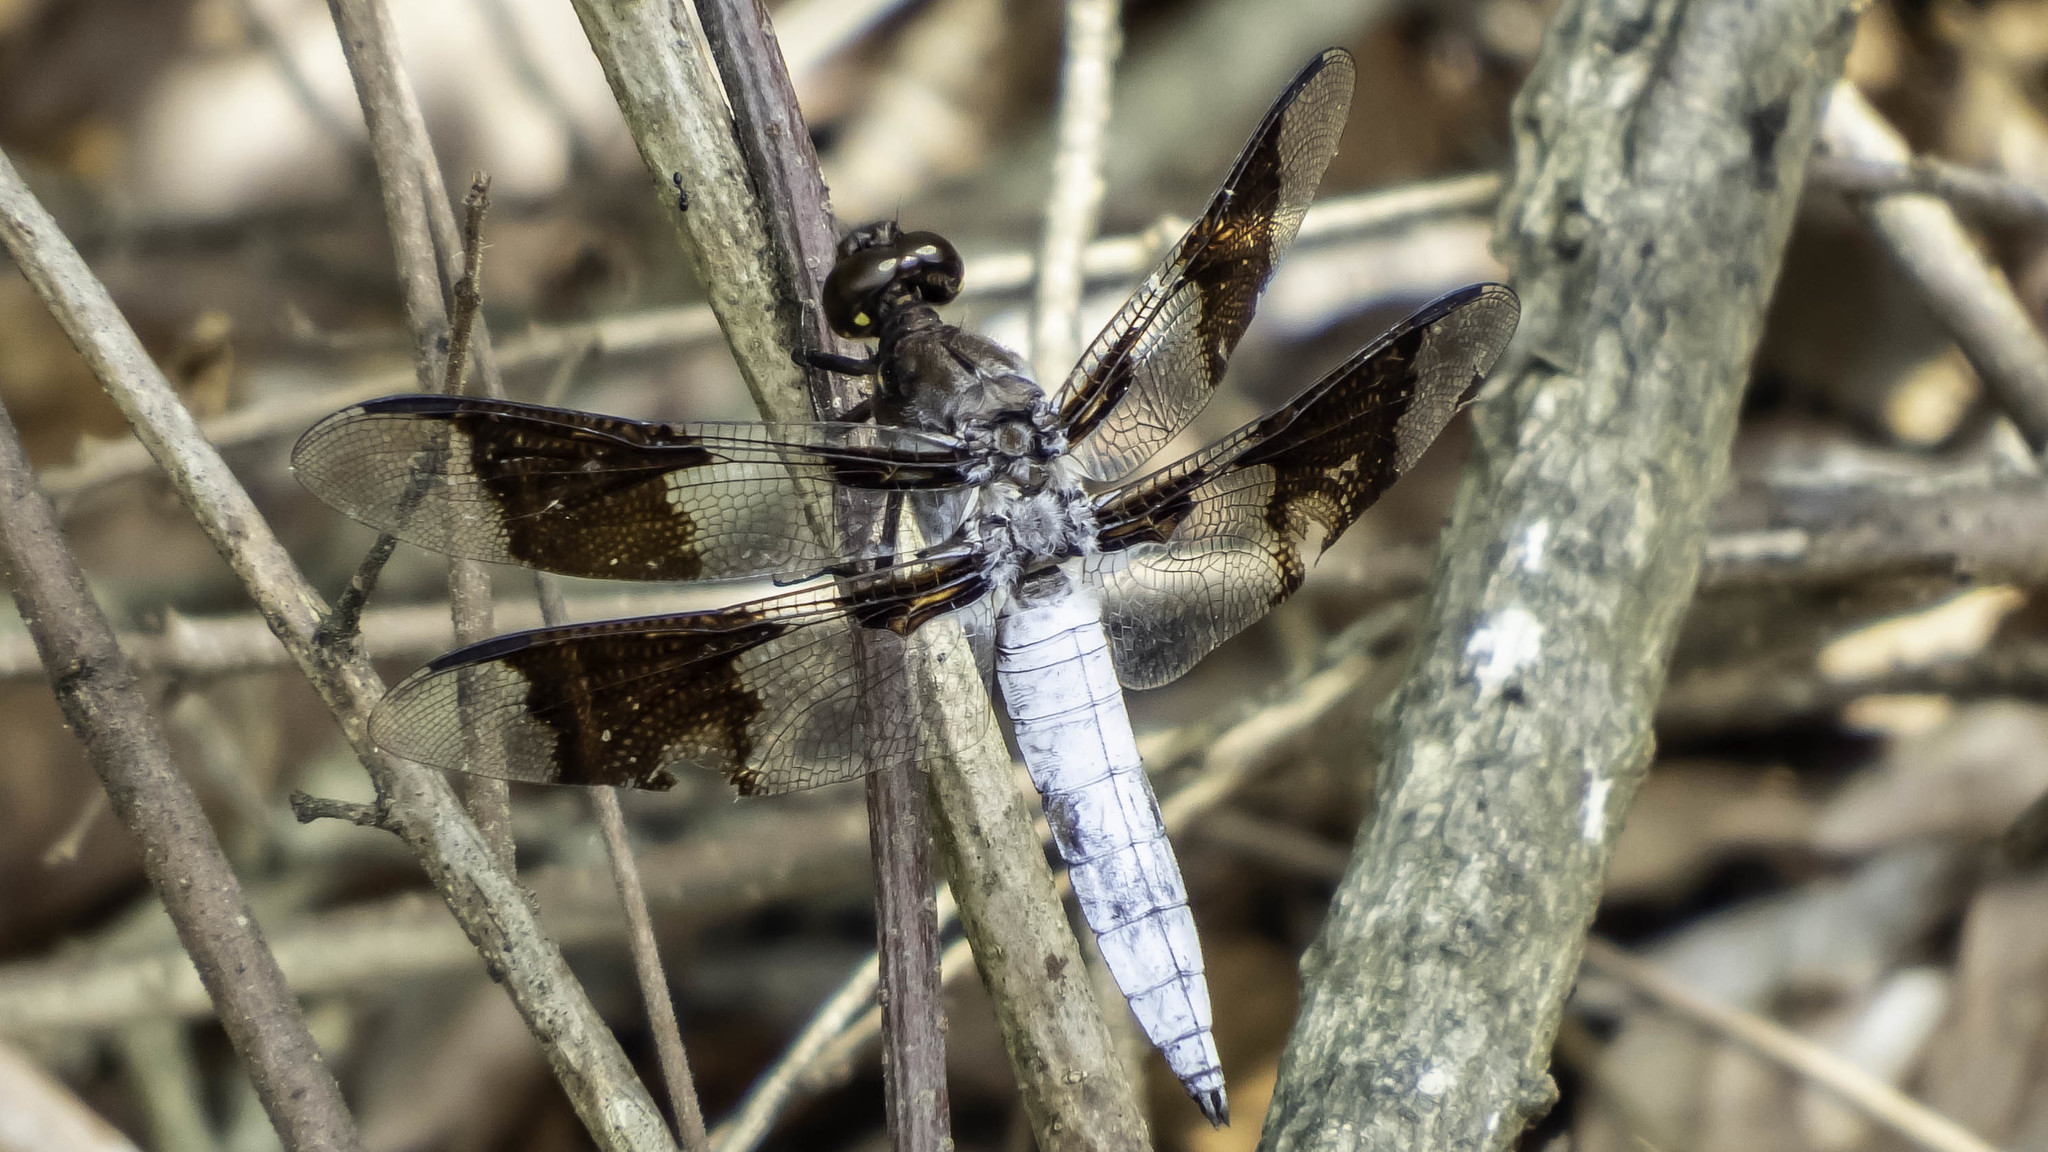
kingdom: Animalia
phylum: Arthropoda
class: Insecta
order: Odonata
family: Libellulidae
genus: Plathemis
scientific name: Plathemis lydia
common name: Common whitetail
